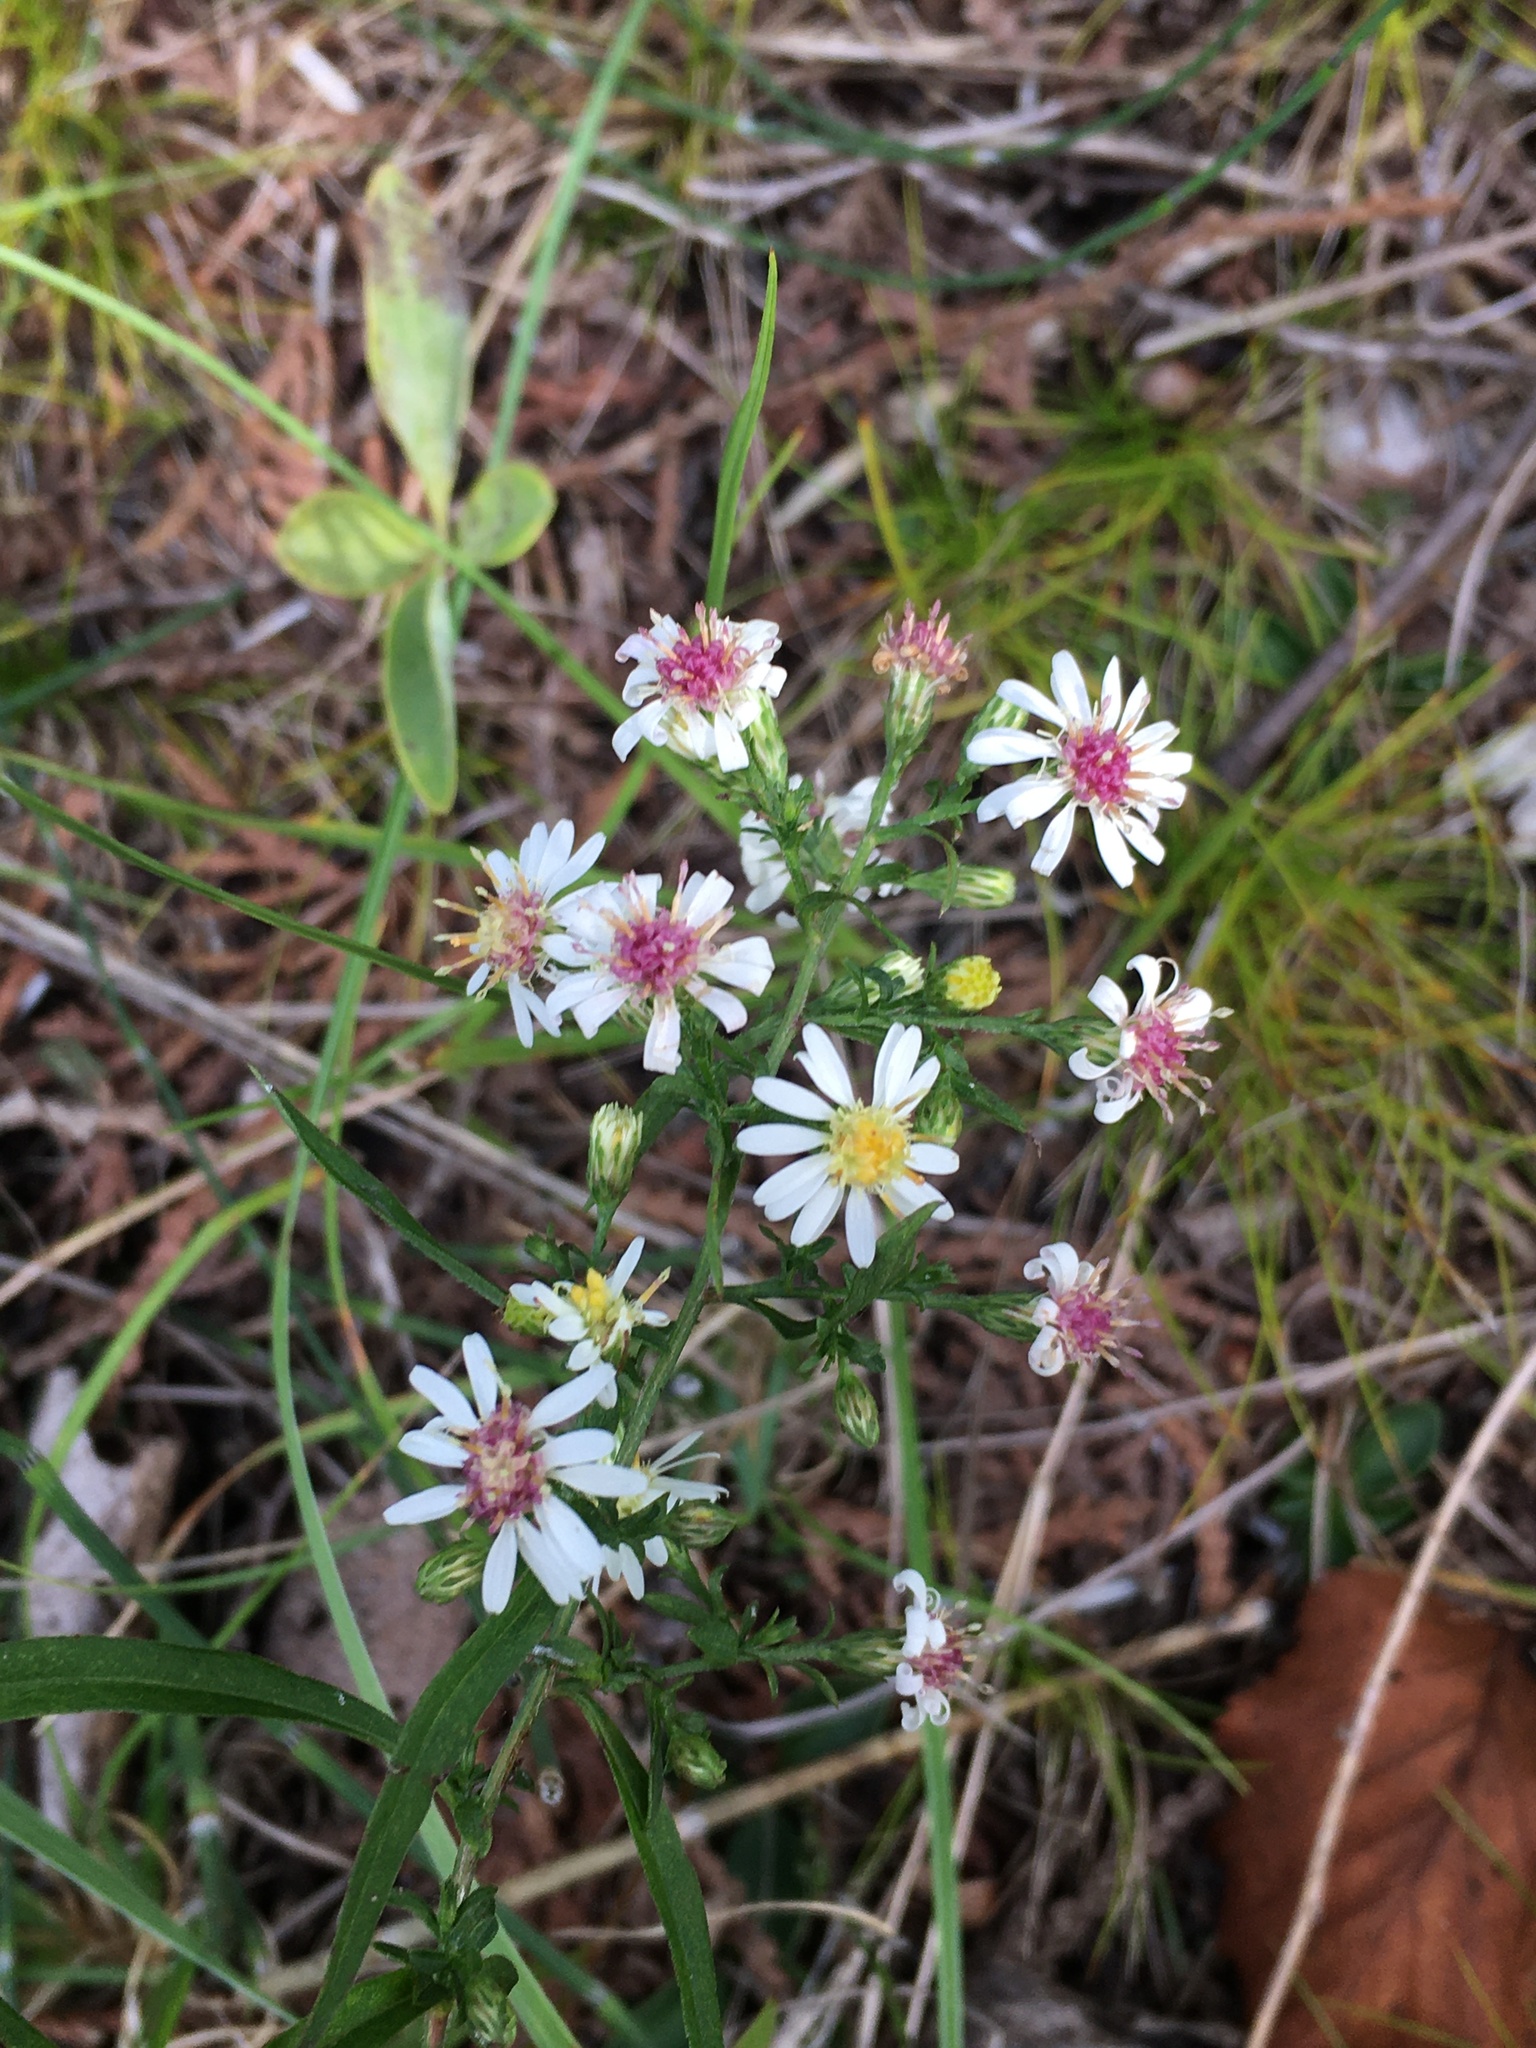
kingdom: Plantae
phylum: Tracheophyta
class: Magnoliopsida
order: Asterales
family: Asteraceae
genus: Symphyotrichum
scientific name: Symphyotrichum lateriflorum
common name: Calico aster
